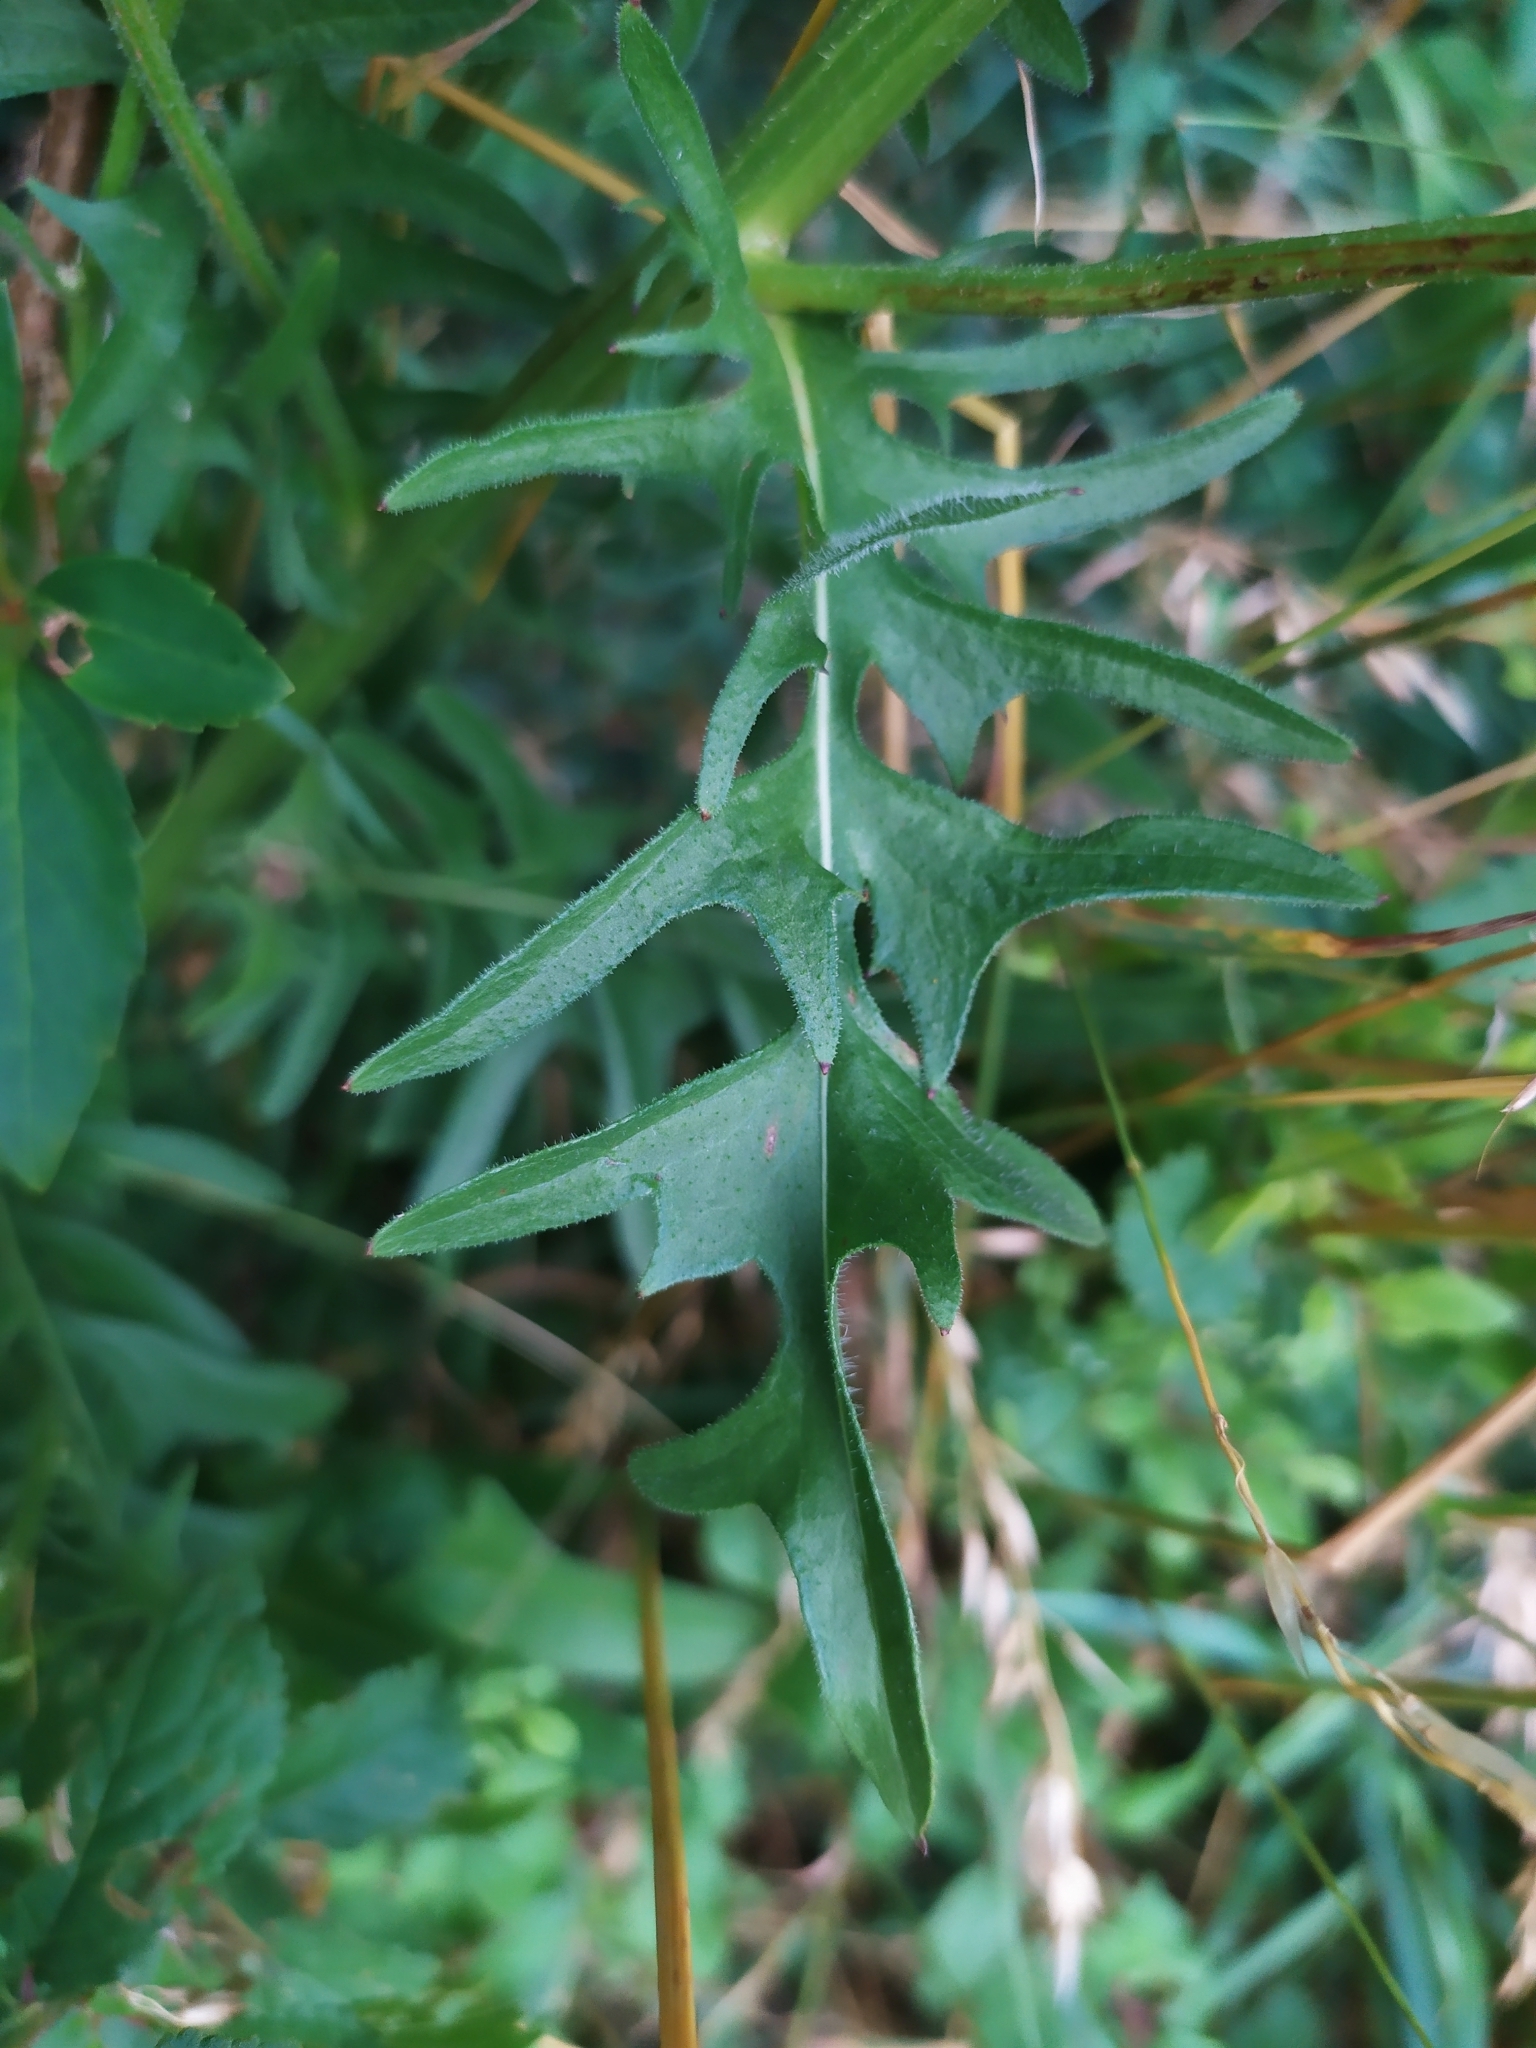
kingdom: Plantae
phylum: Tracheophyta
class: Magnoliopsida
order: Asterales
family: Asteraceae
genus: Crepis
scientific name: Crepis biennis
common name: Rough hawk's-beard
